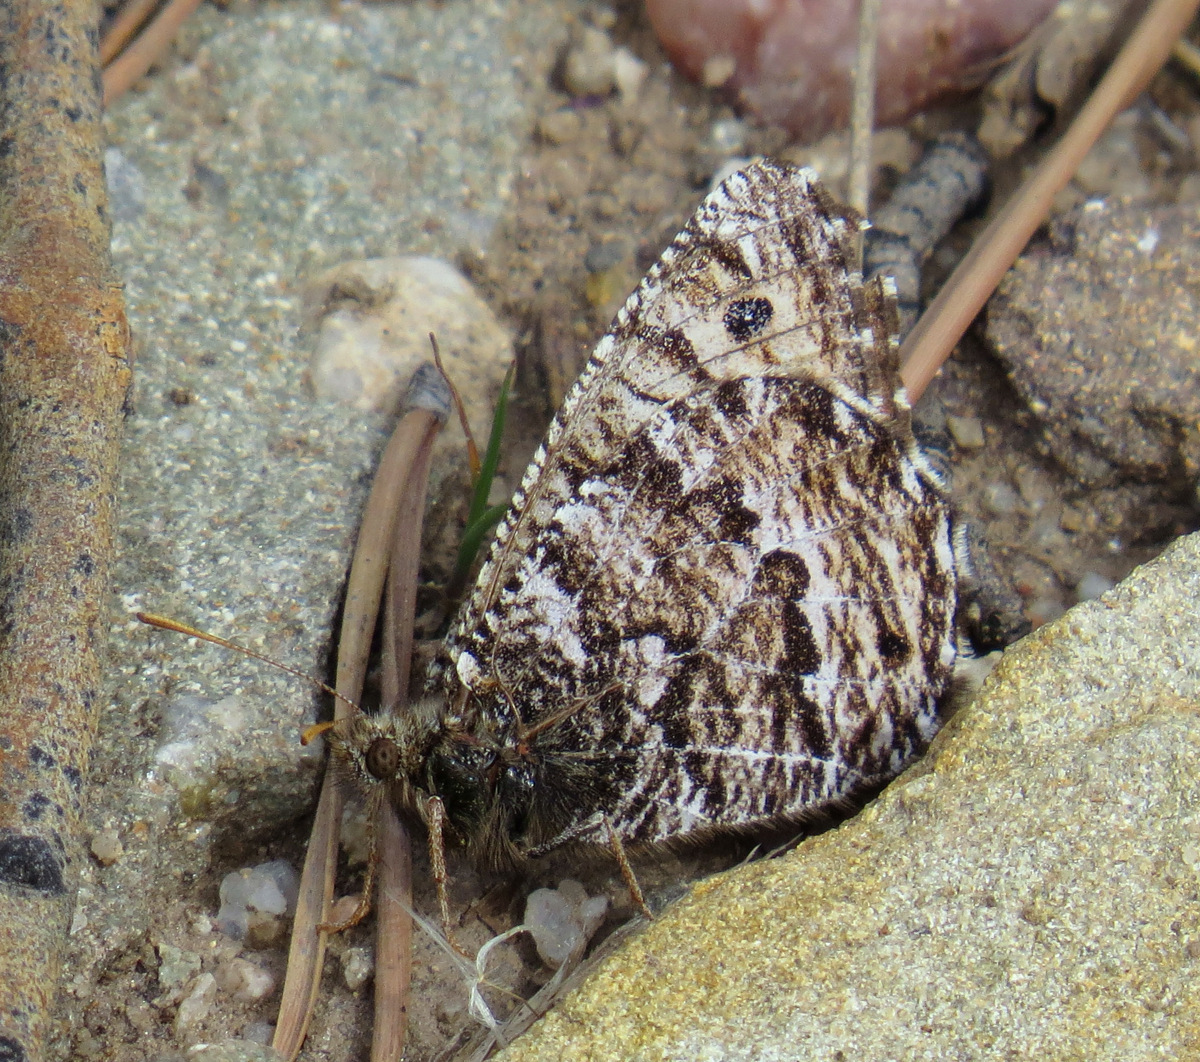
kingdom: Animalia
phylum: Arthropoda
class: Insecta
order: Lepidoptera
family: Nymphalidae
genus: Oeneis
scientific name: Oeneis chryxus
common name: Chryxus arctic
